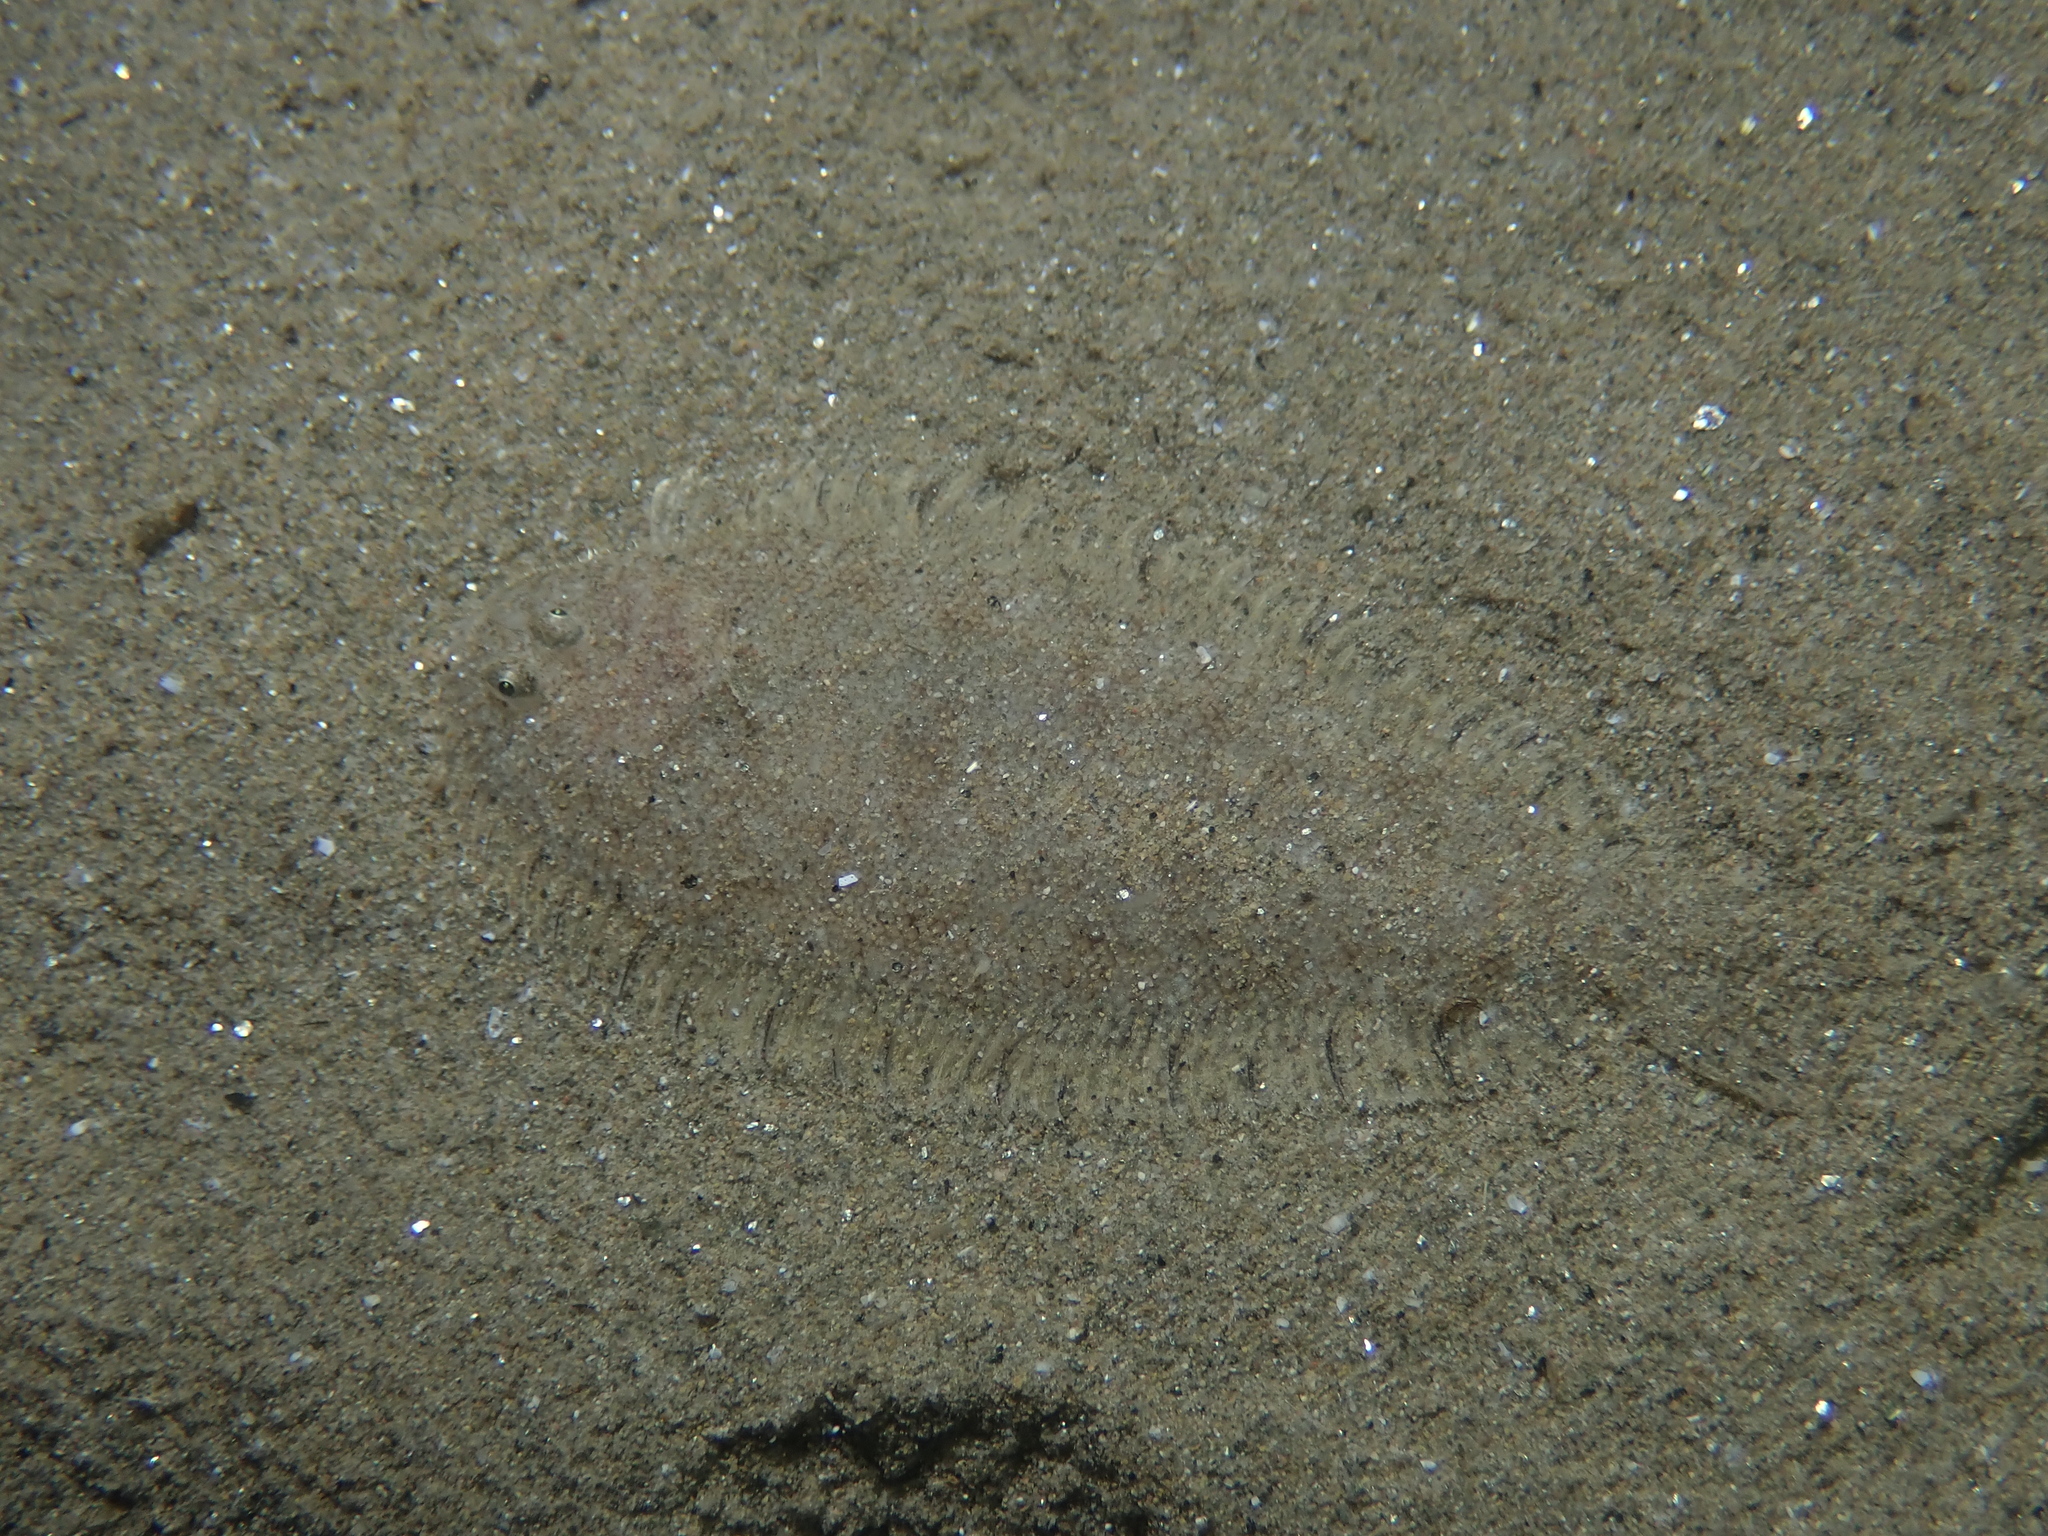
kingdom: Animalia
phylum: Chordata
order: Pleuronectiformes
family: Soleidae
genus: Buglossidium
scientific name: Buglossidium luteum
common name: Solenette
